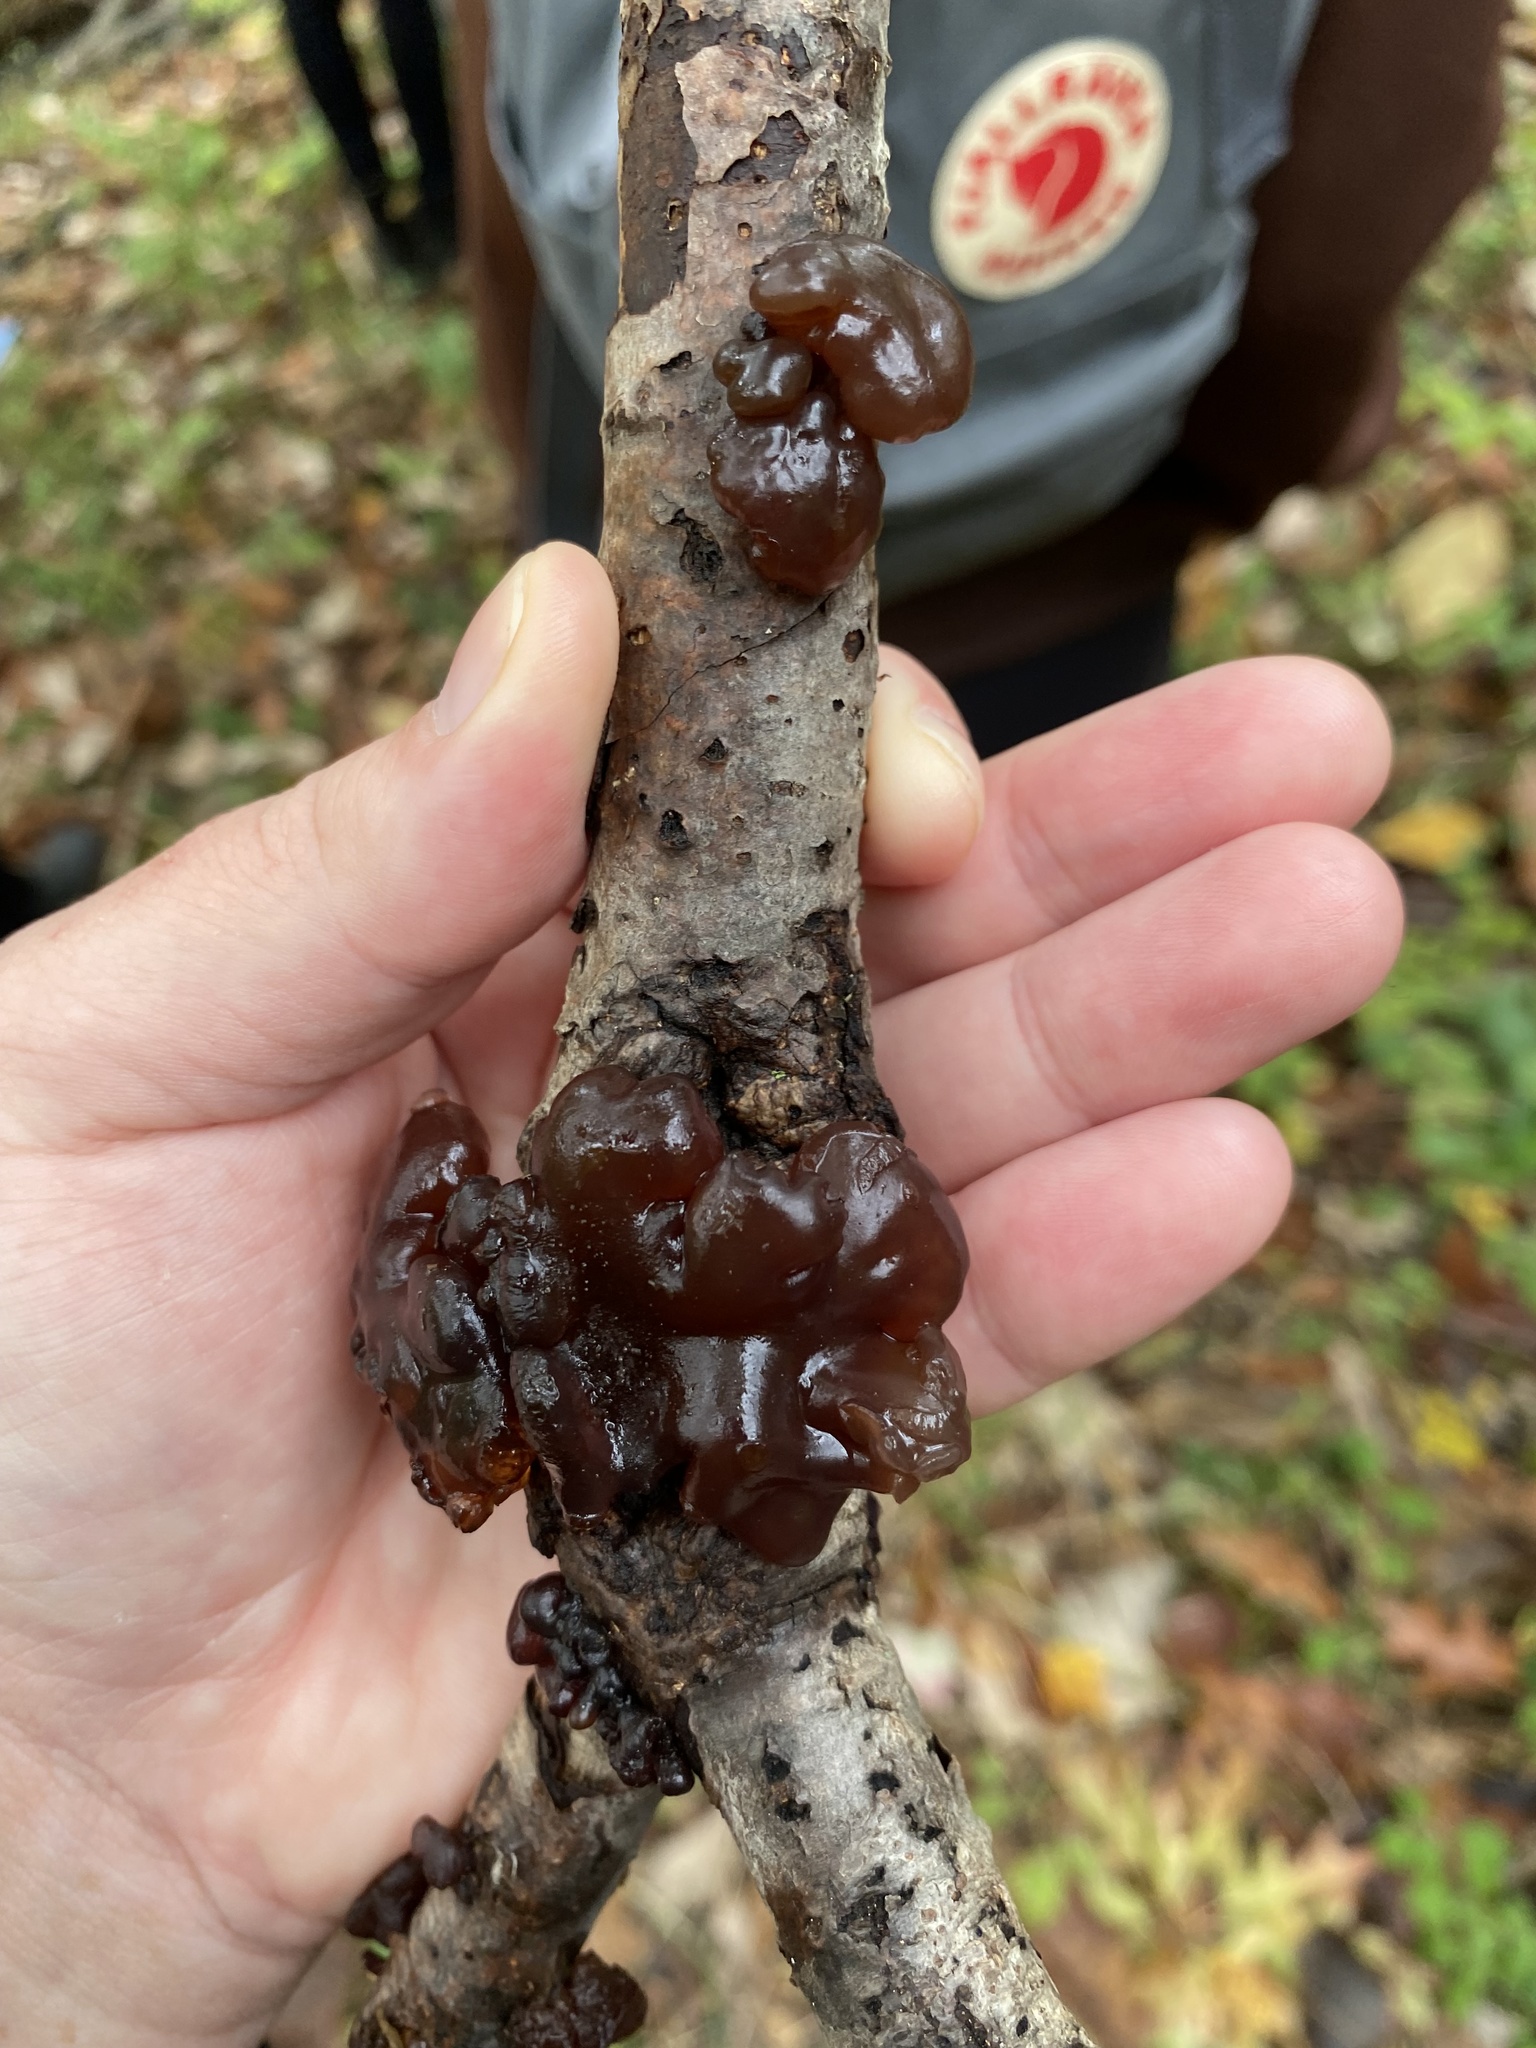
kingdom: Fungi
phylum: Basidiomycota
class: Agaricomycetes
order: Auriculariales
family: Auriculariaceae
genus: Exidia
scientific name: Exidia
